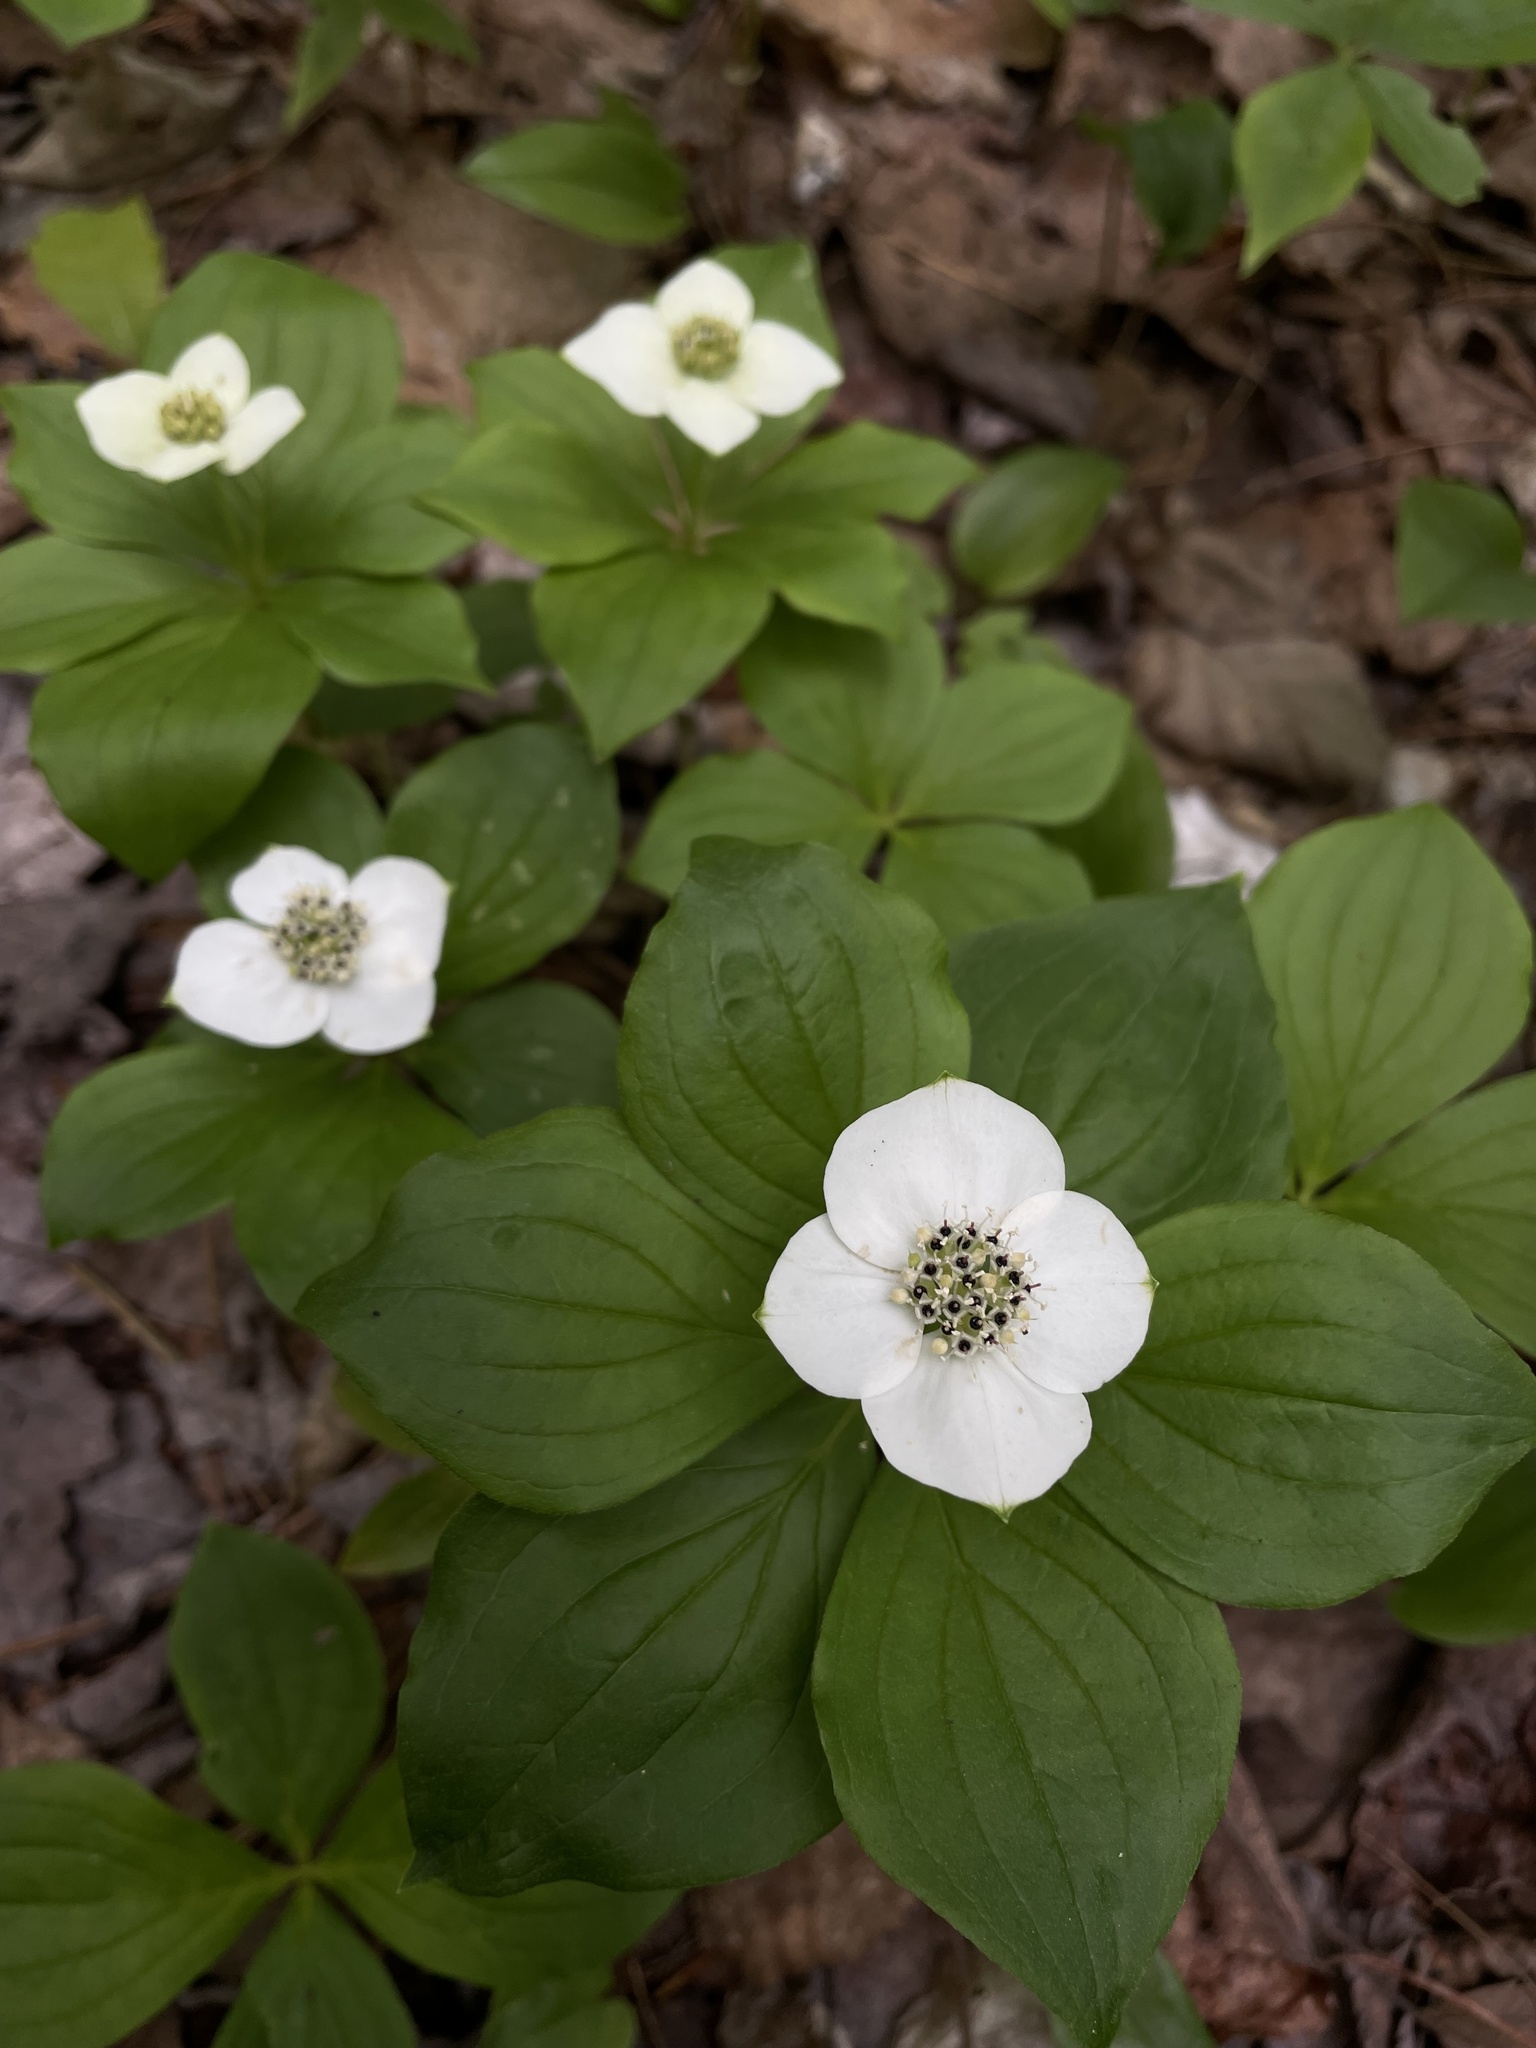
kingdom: Plantae
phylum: Tracheophyta
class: Magnoliopsida
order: Cornales
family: Cornaceae
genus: Cornus
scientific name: Cornus canadensis
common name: Creeping dogwood
